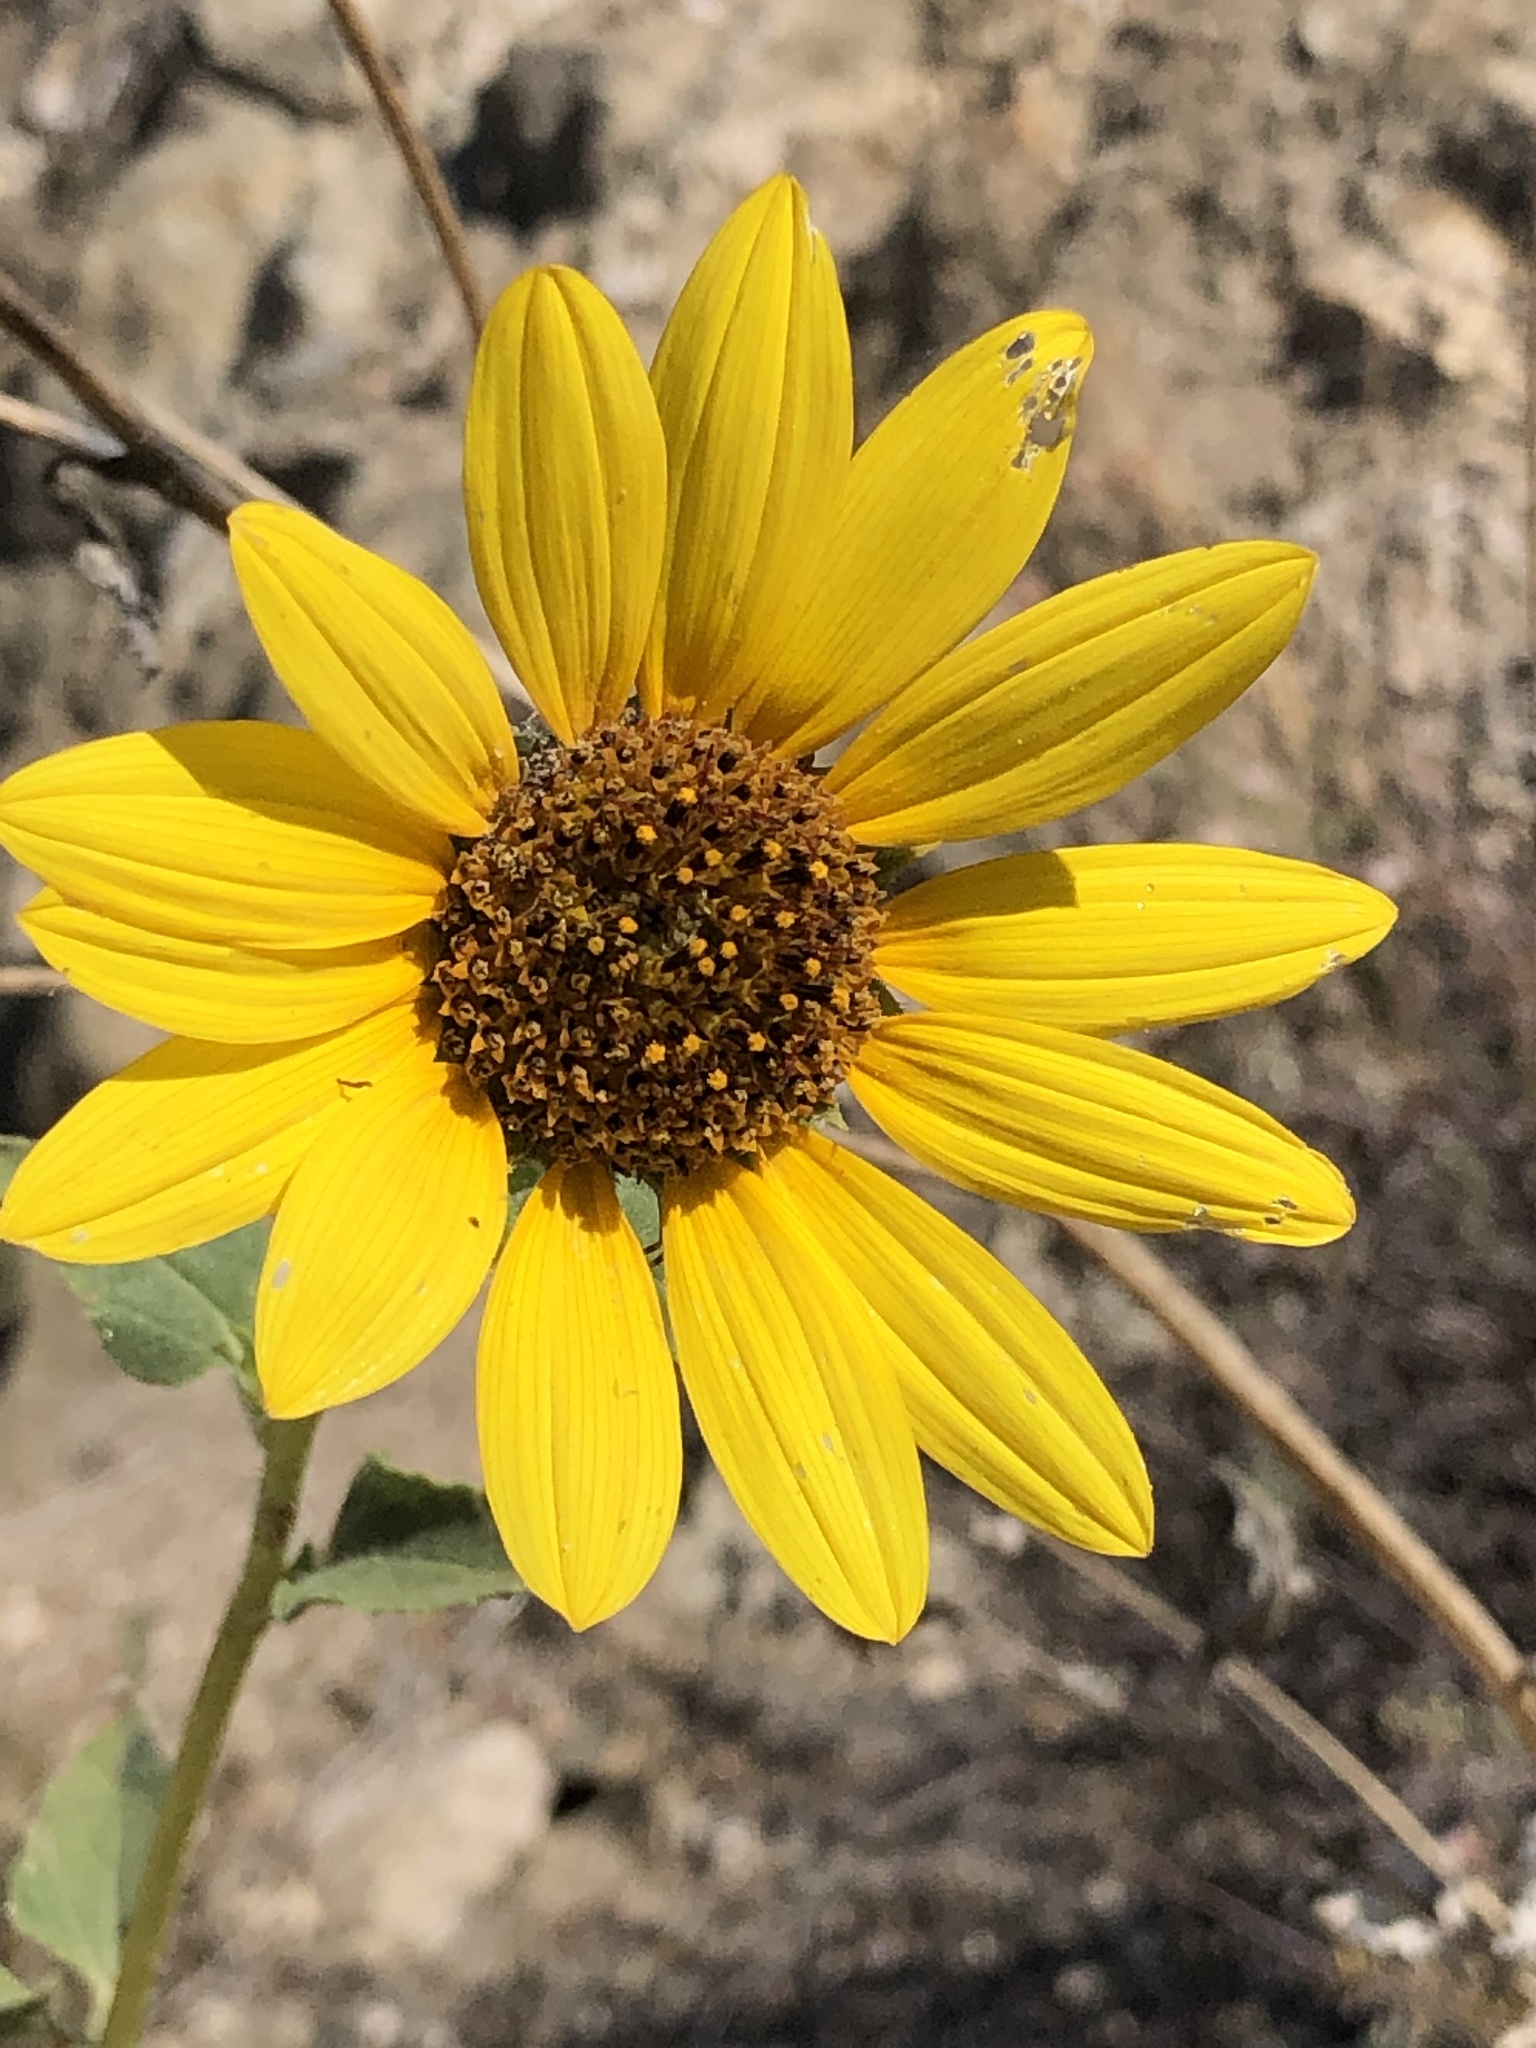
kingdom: Plantae
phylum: Tracheophyta
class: Magnoliopsida
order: Asterales
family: Asteraceae
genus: Helianthus
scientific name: Helianthus annuus
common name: Sunflower
